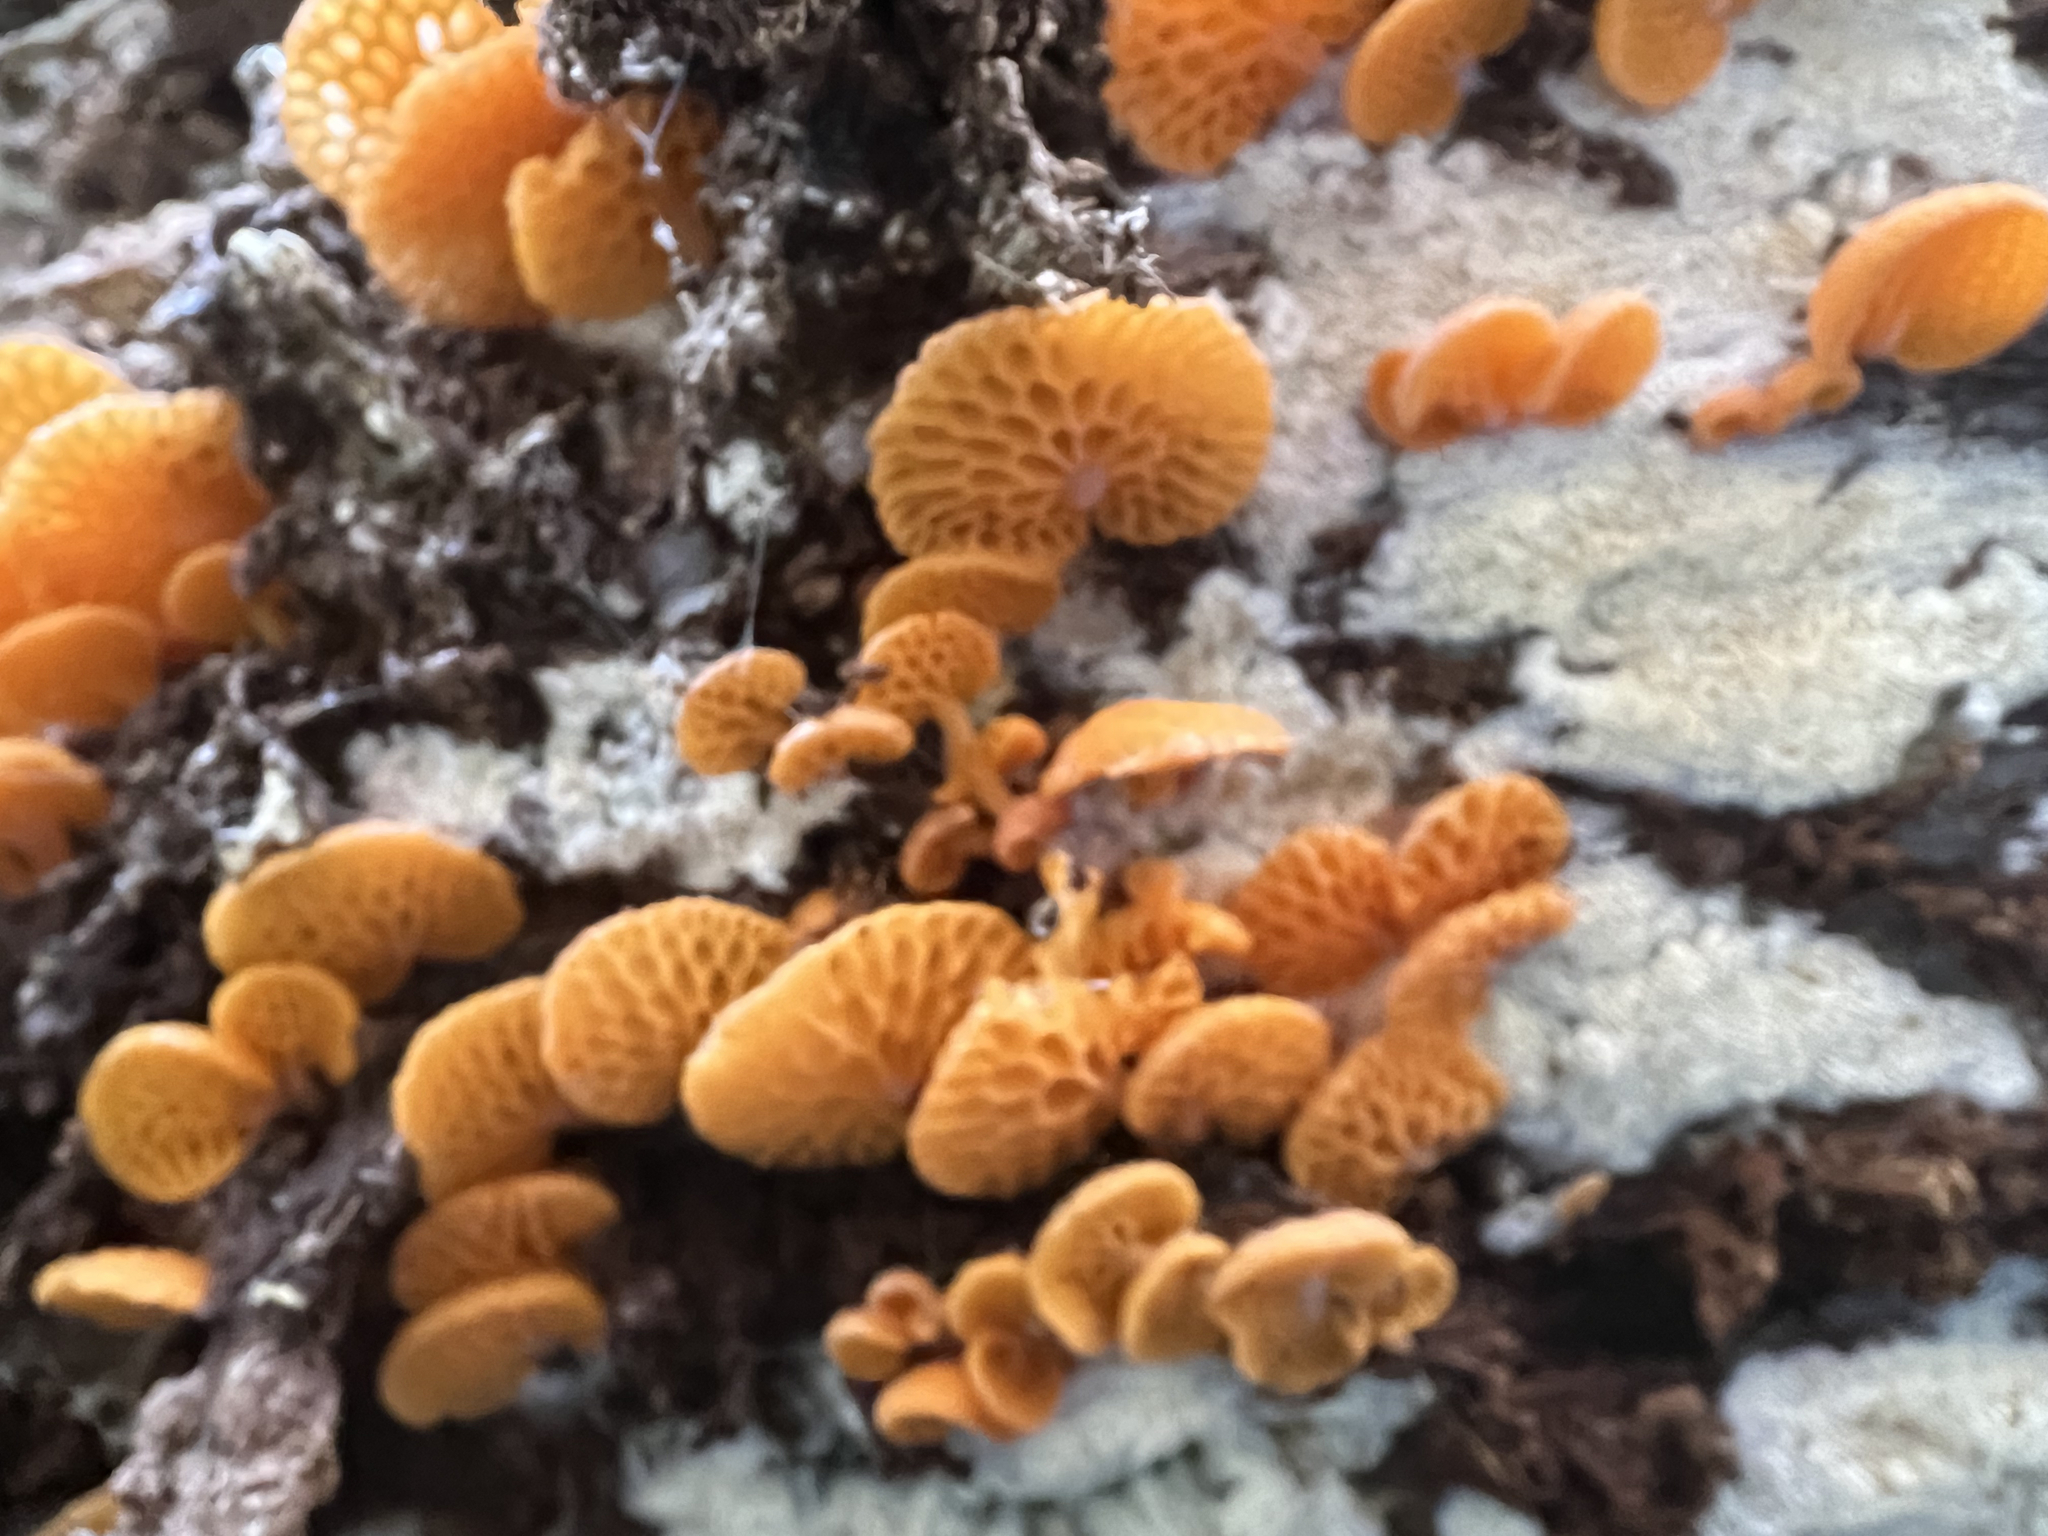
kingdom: Fungi
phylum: Basidiomycota
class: Agaricomycetes
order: Agaricales
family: Mycenaceae
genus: Favolaschia
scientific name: Favolaschia claudopus
